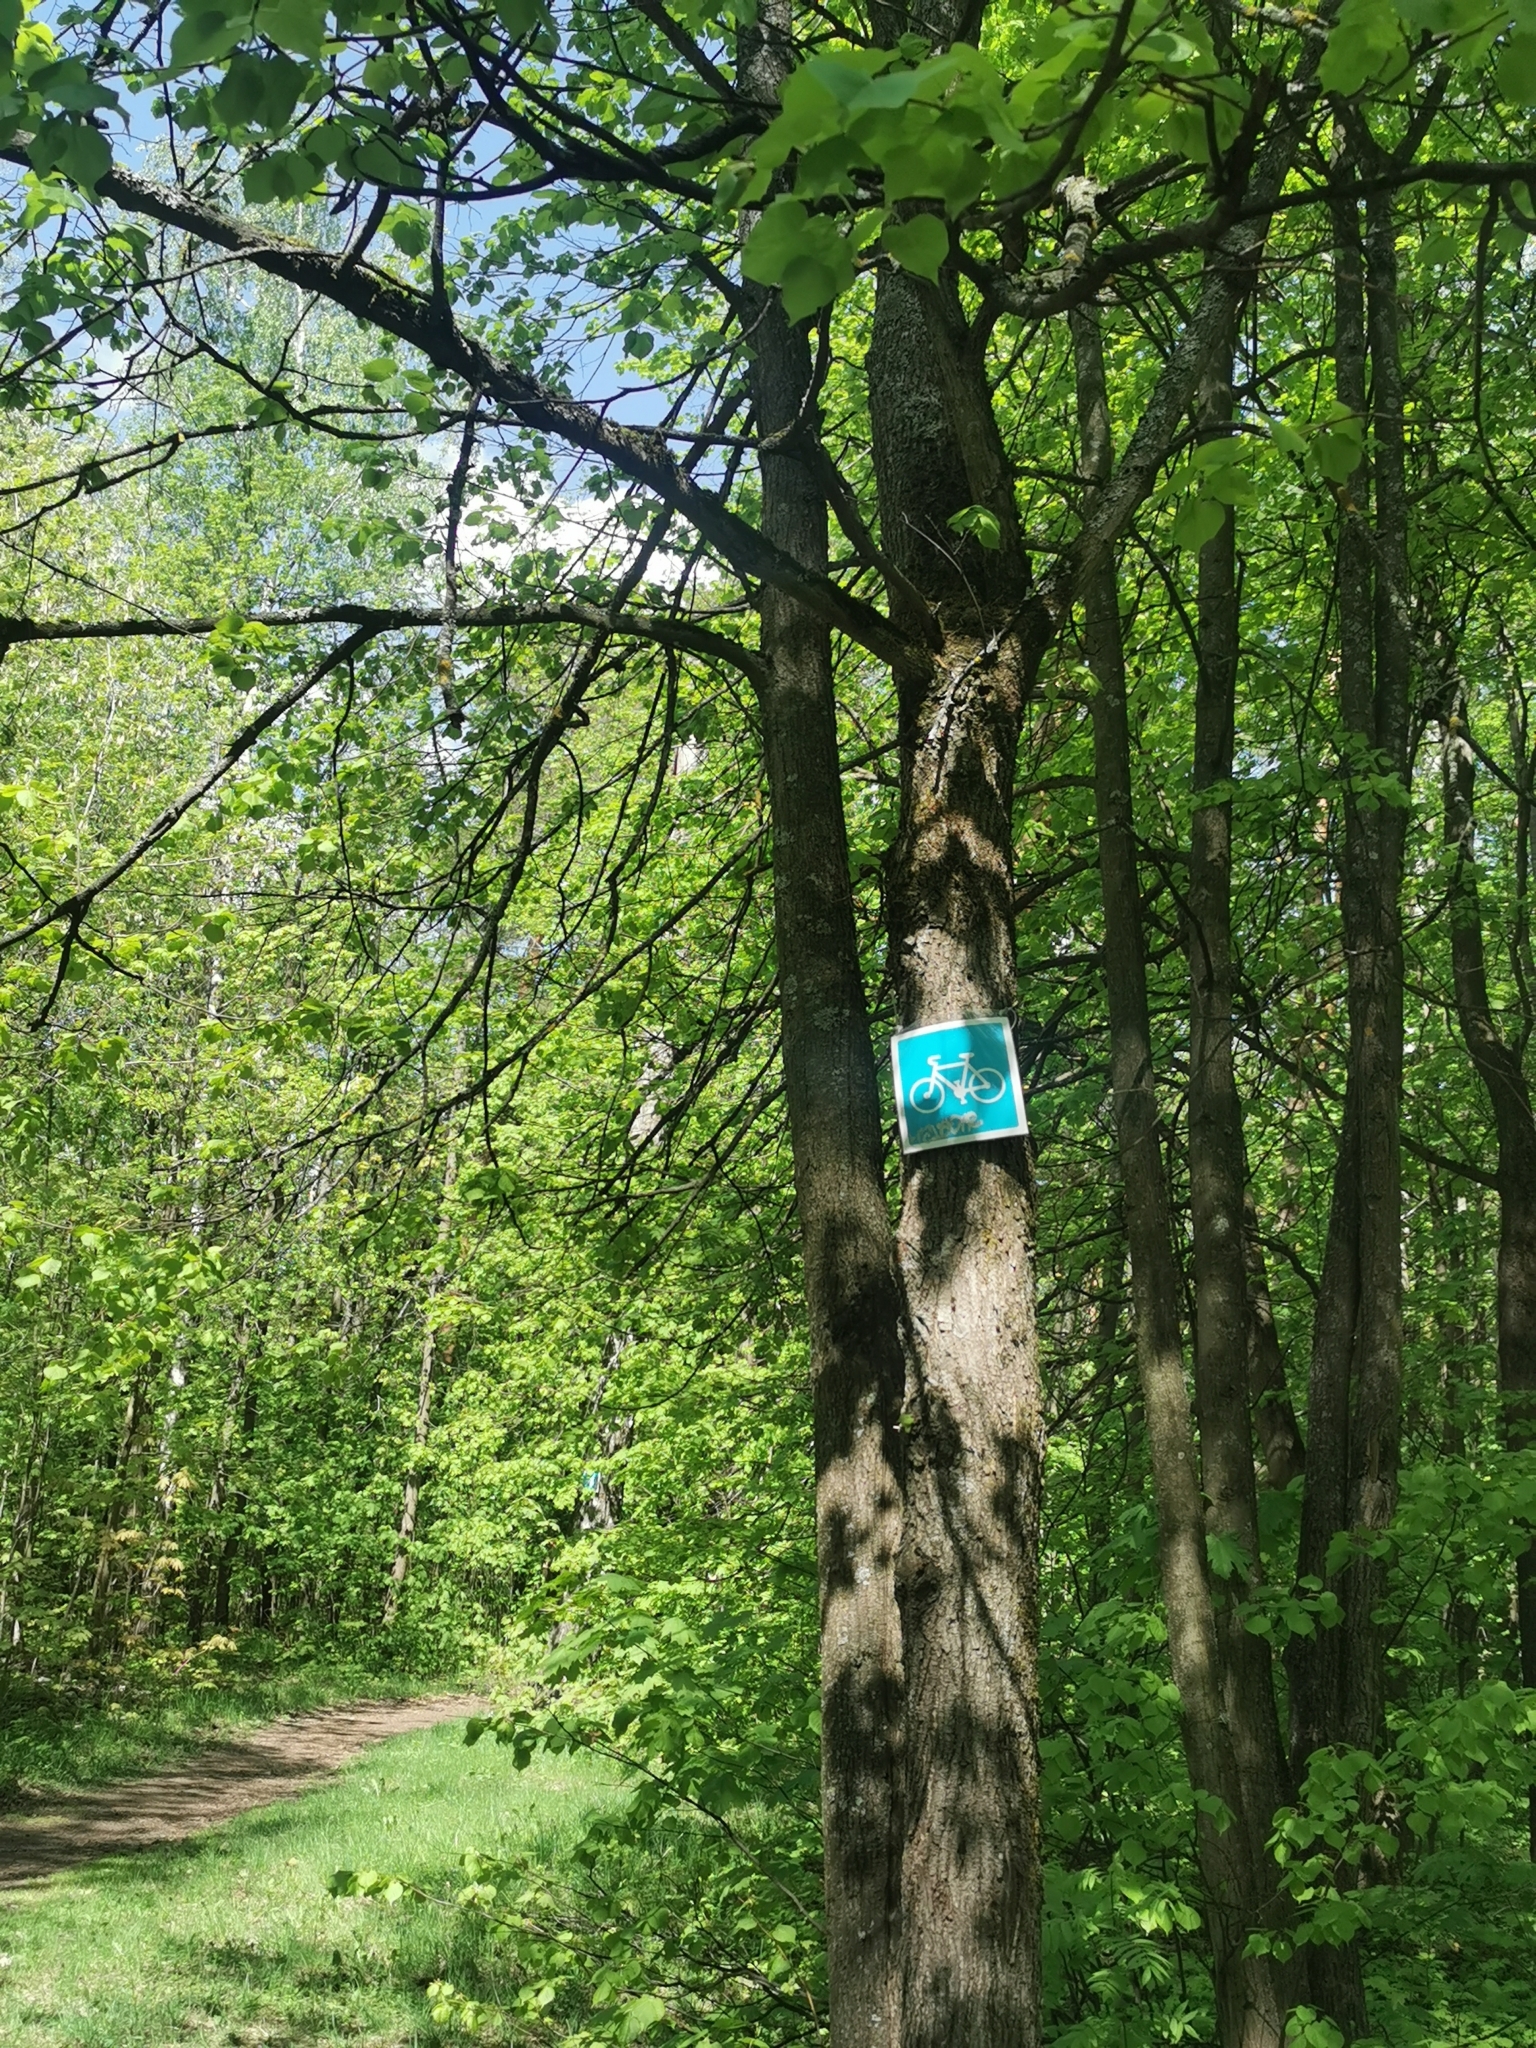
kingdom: Plantae
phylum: Tracheophyta
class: Magnoliopsida
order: Malvales
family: Malvaceae
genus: Tilia
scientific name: Tilia cordata
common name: Small-leaved lime
